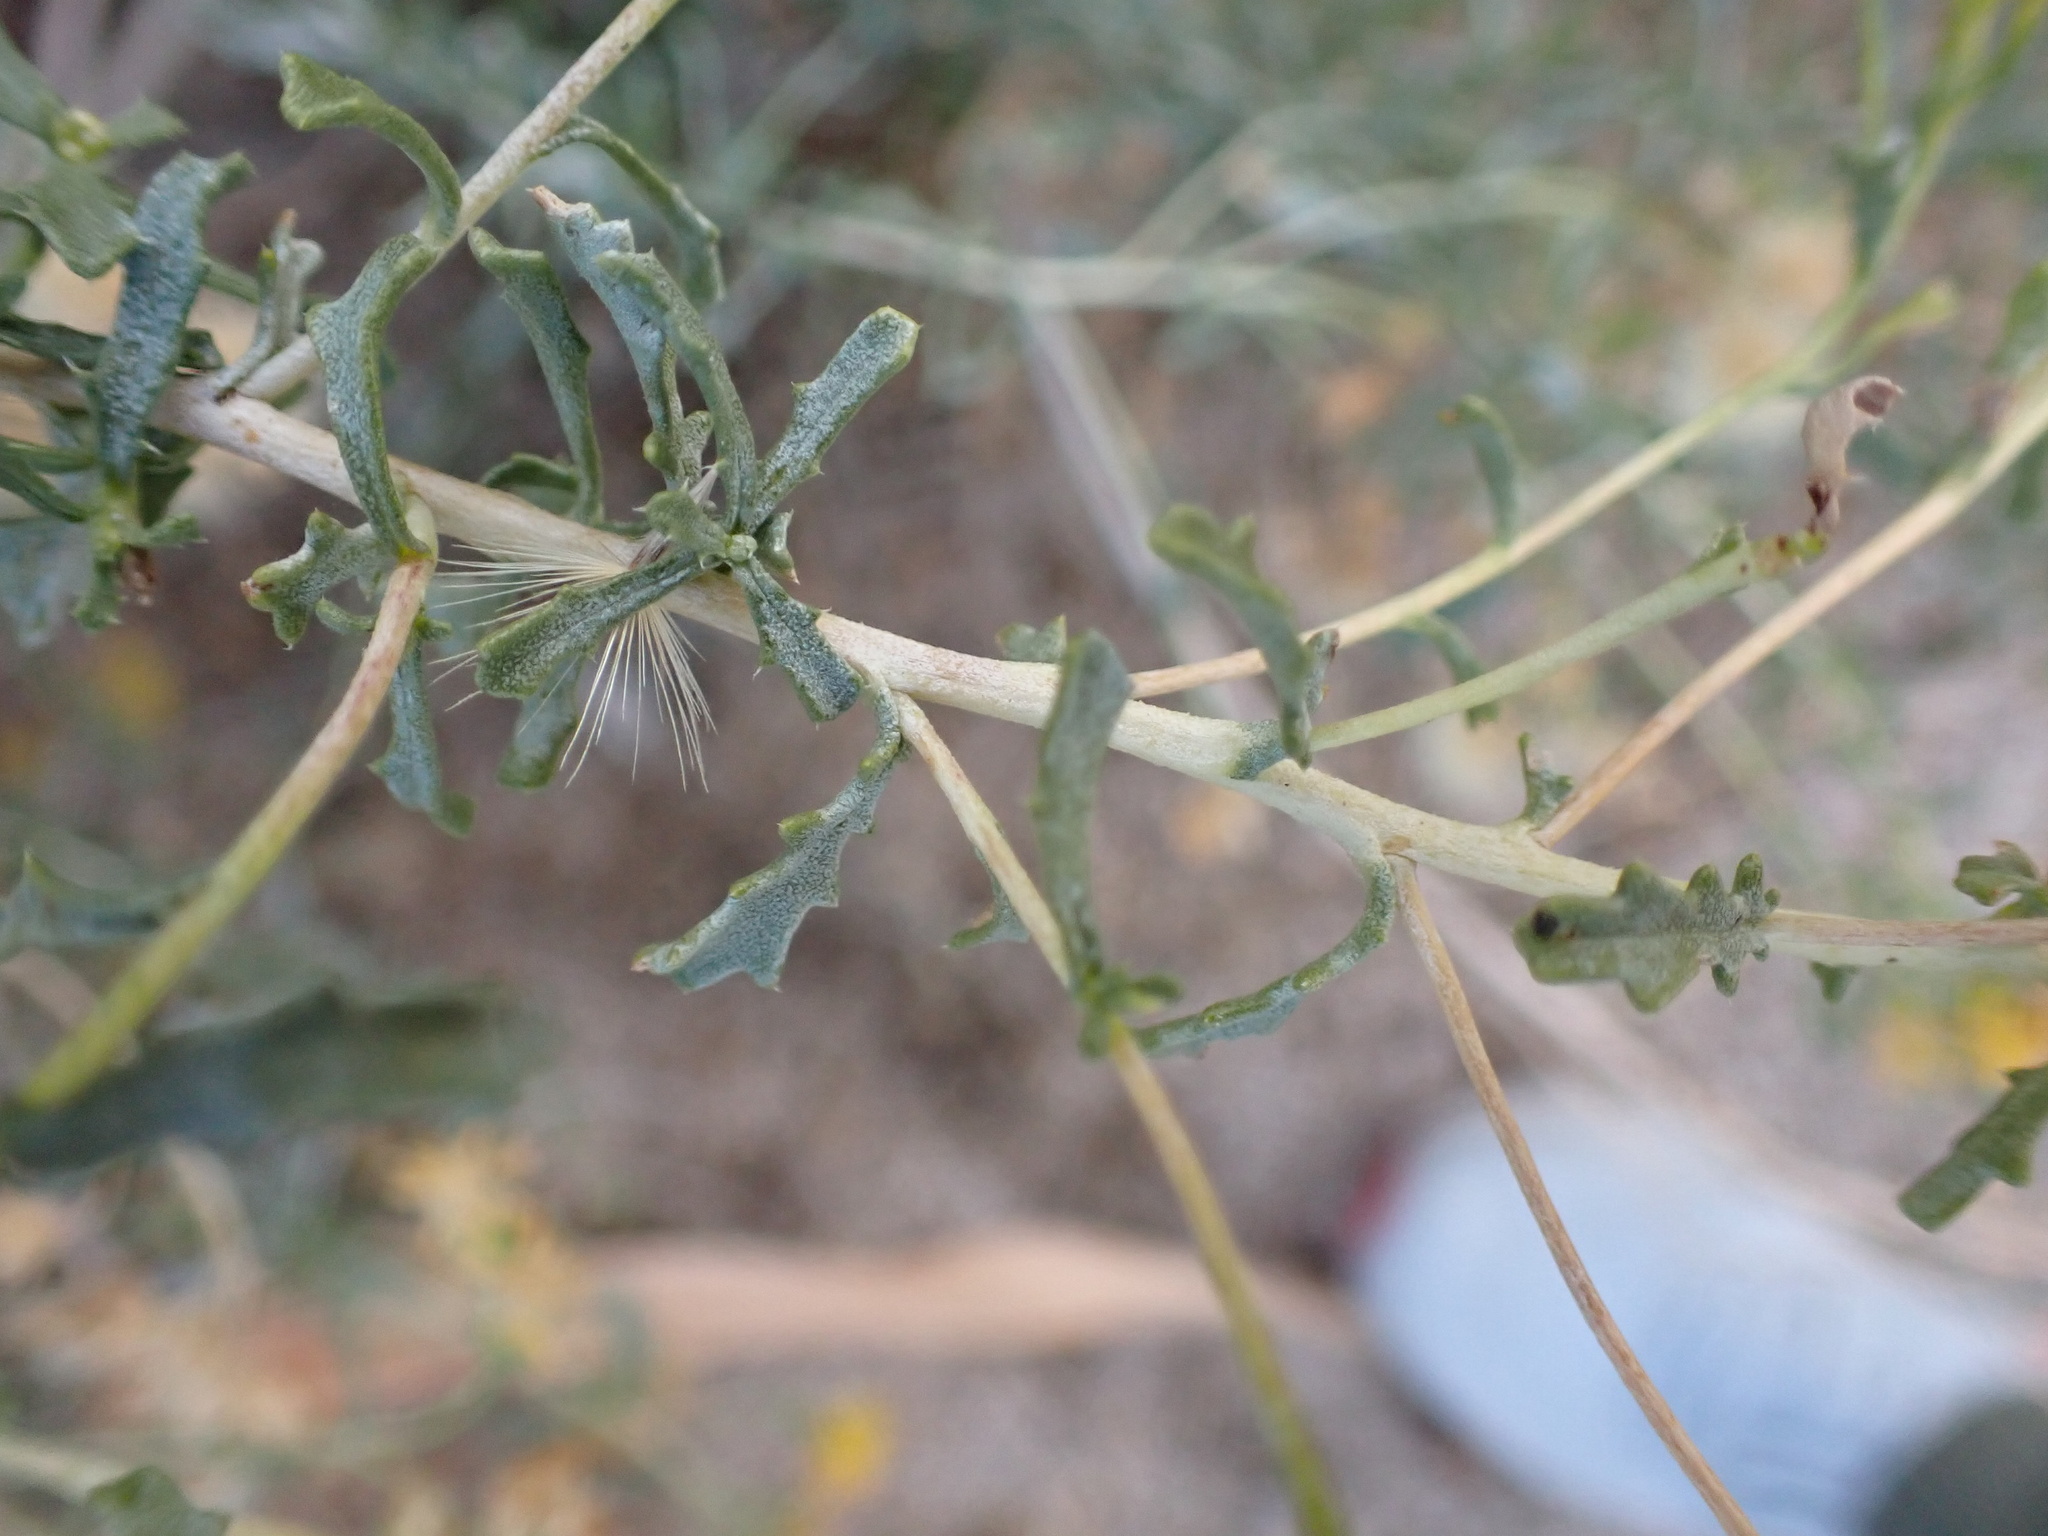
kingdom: Plantae
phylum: Tracheophyta
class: Magnoliopsida
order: Asterales
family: Asteraceae
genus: Isocoma
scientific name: Isocoma acradenia
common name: Alkali jimmyweed
